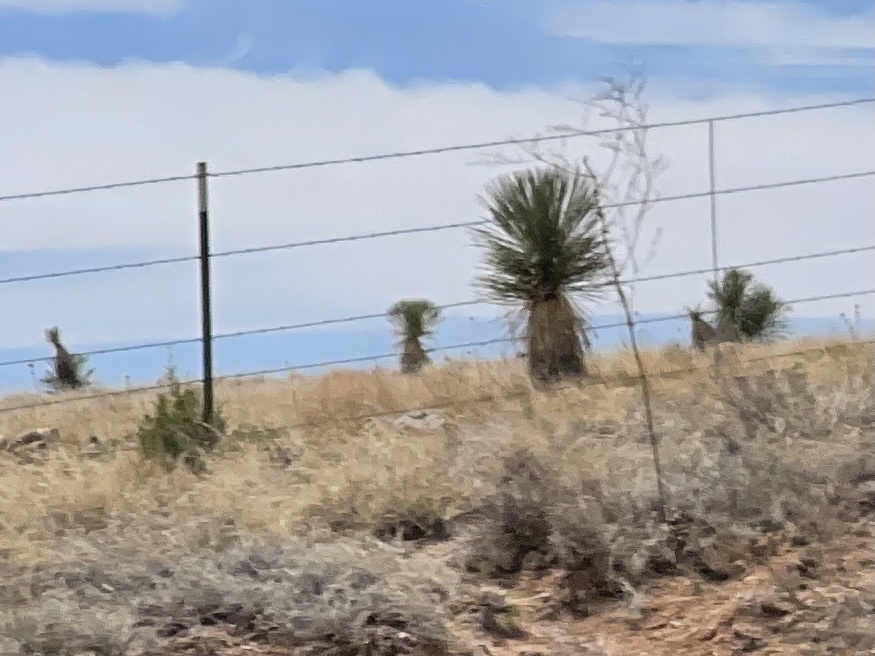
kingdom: Plantae
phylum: Tracheophyta
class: Liliopsida
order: Asparagales
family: Asparagaceae
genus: Yucca
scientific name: Yucca elata
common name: Palmella
